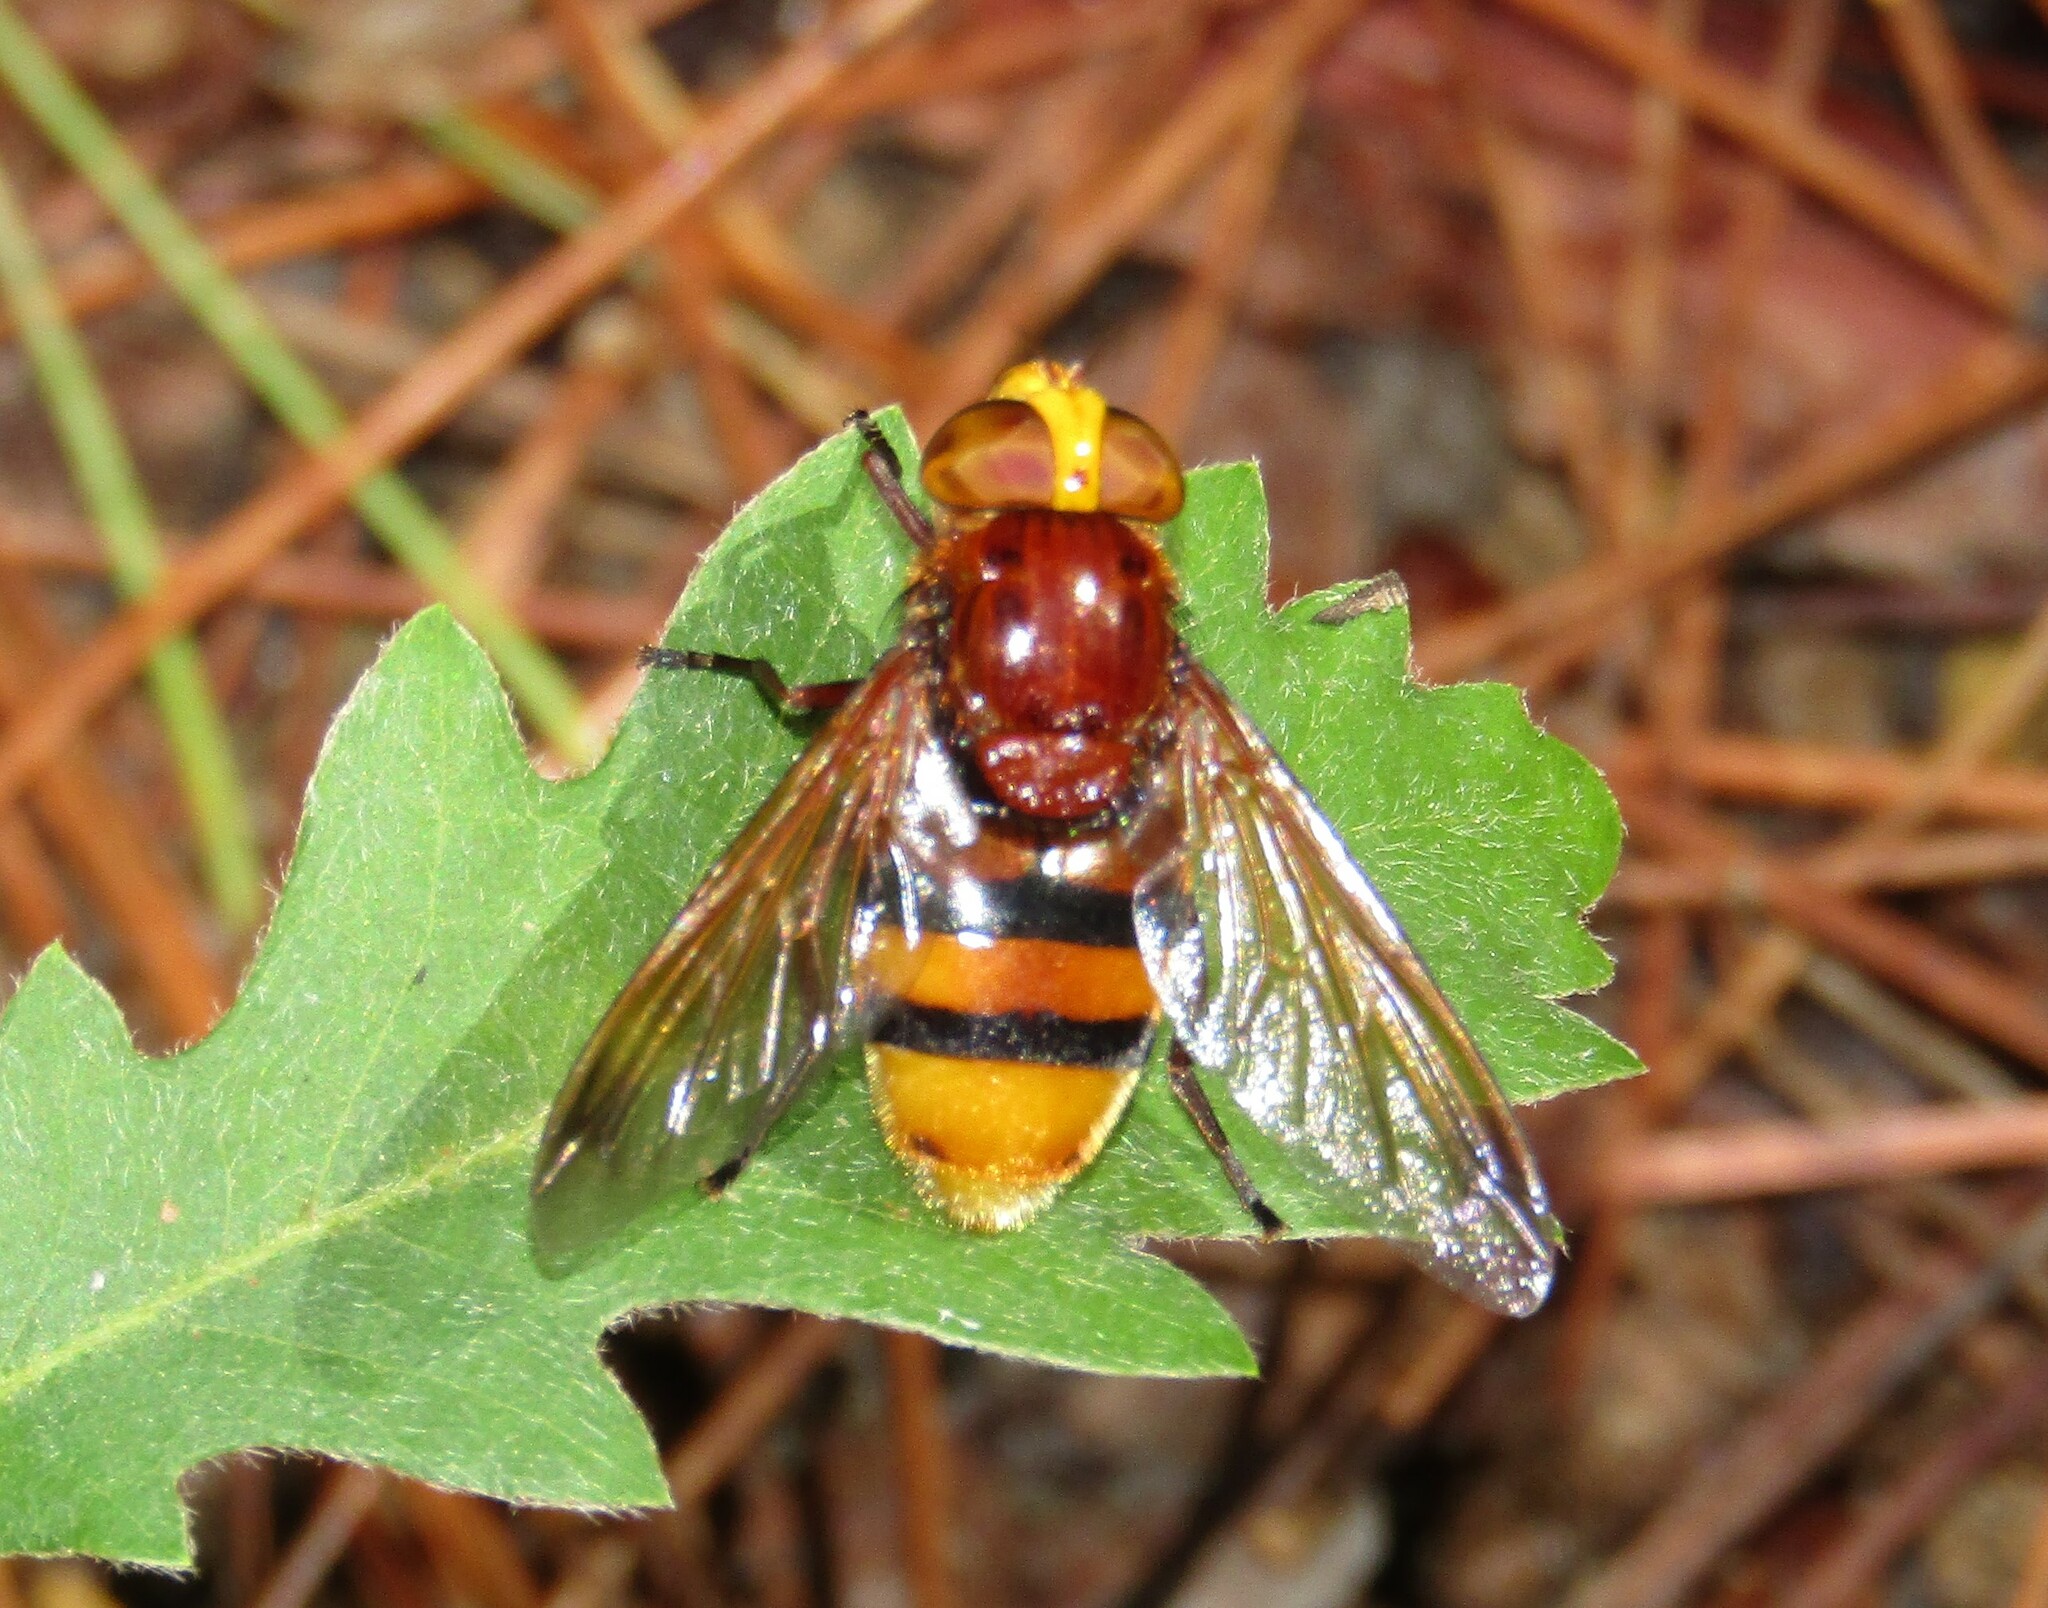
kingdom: Animalia
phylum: Arthropoda
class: Insecta
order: Diptera
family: Syrphidae
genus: Volucella
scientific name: Volucella zonaria
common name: Hornet hoverfly
